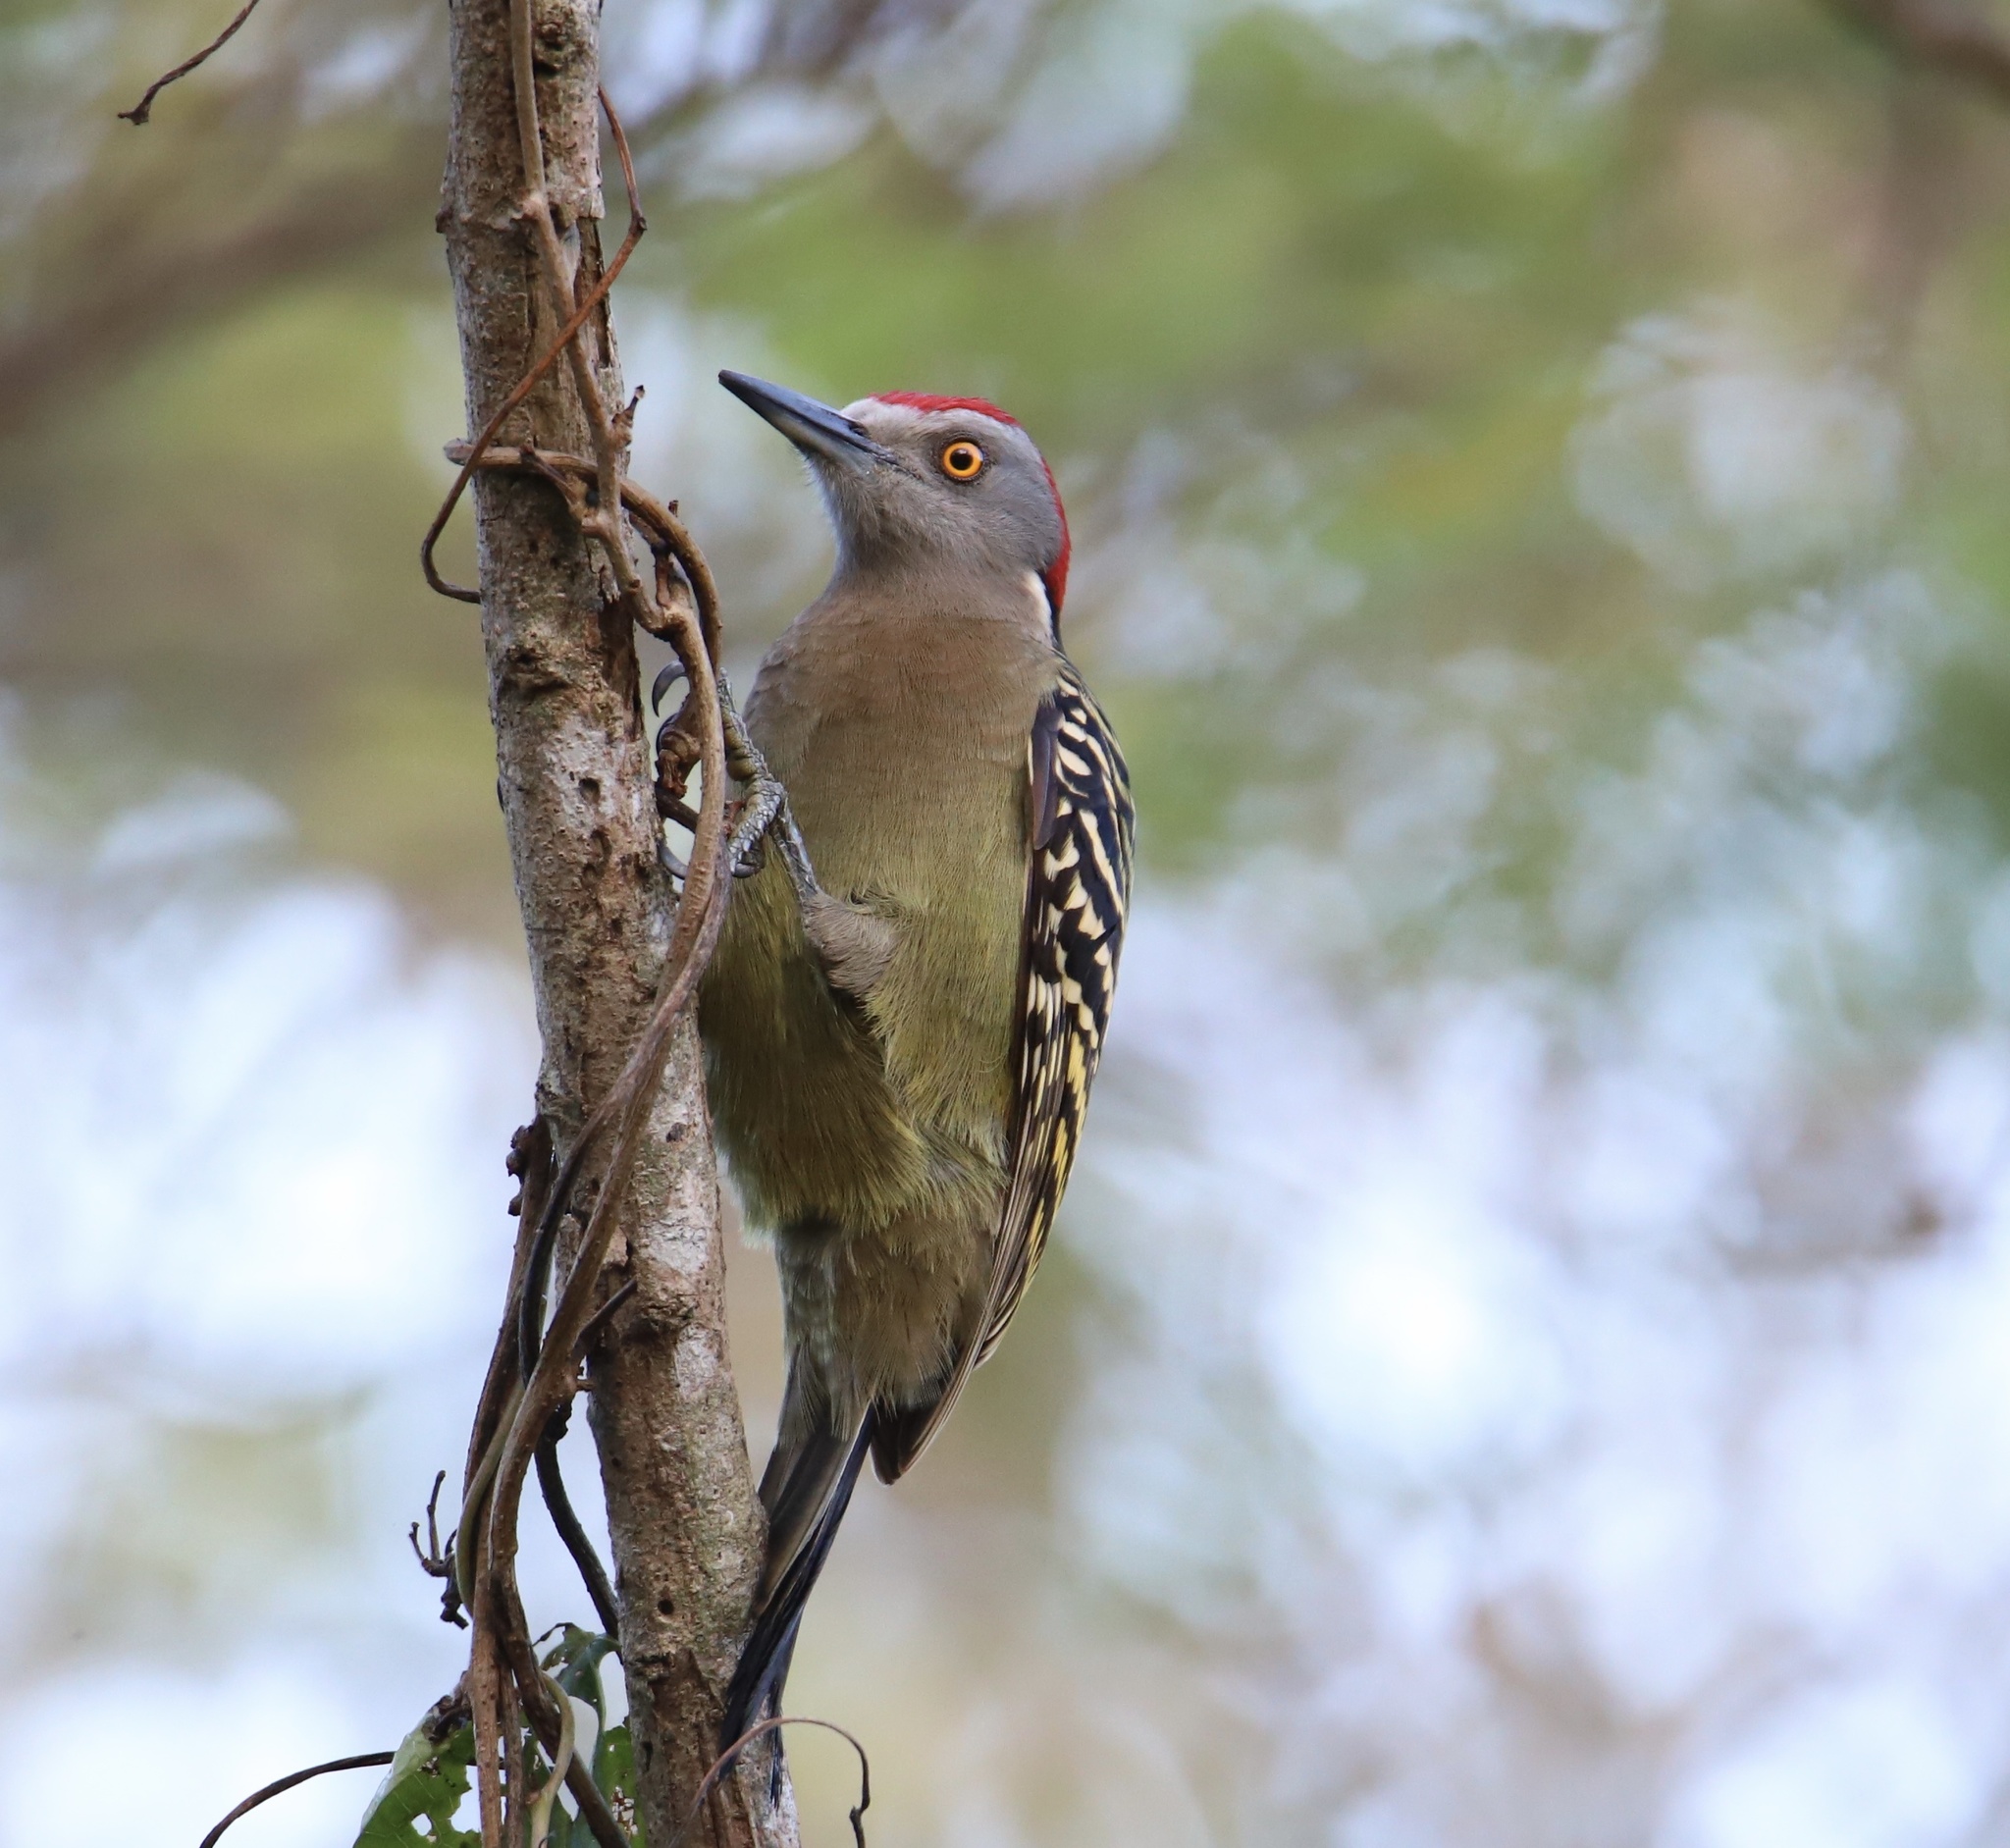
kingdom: Animalia
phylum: Chordata
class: Aves
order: Piciformes
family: Picidae
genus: Melanerpes
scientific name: Melanerpes striatus
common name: Hispaniolan woodpecker
